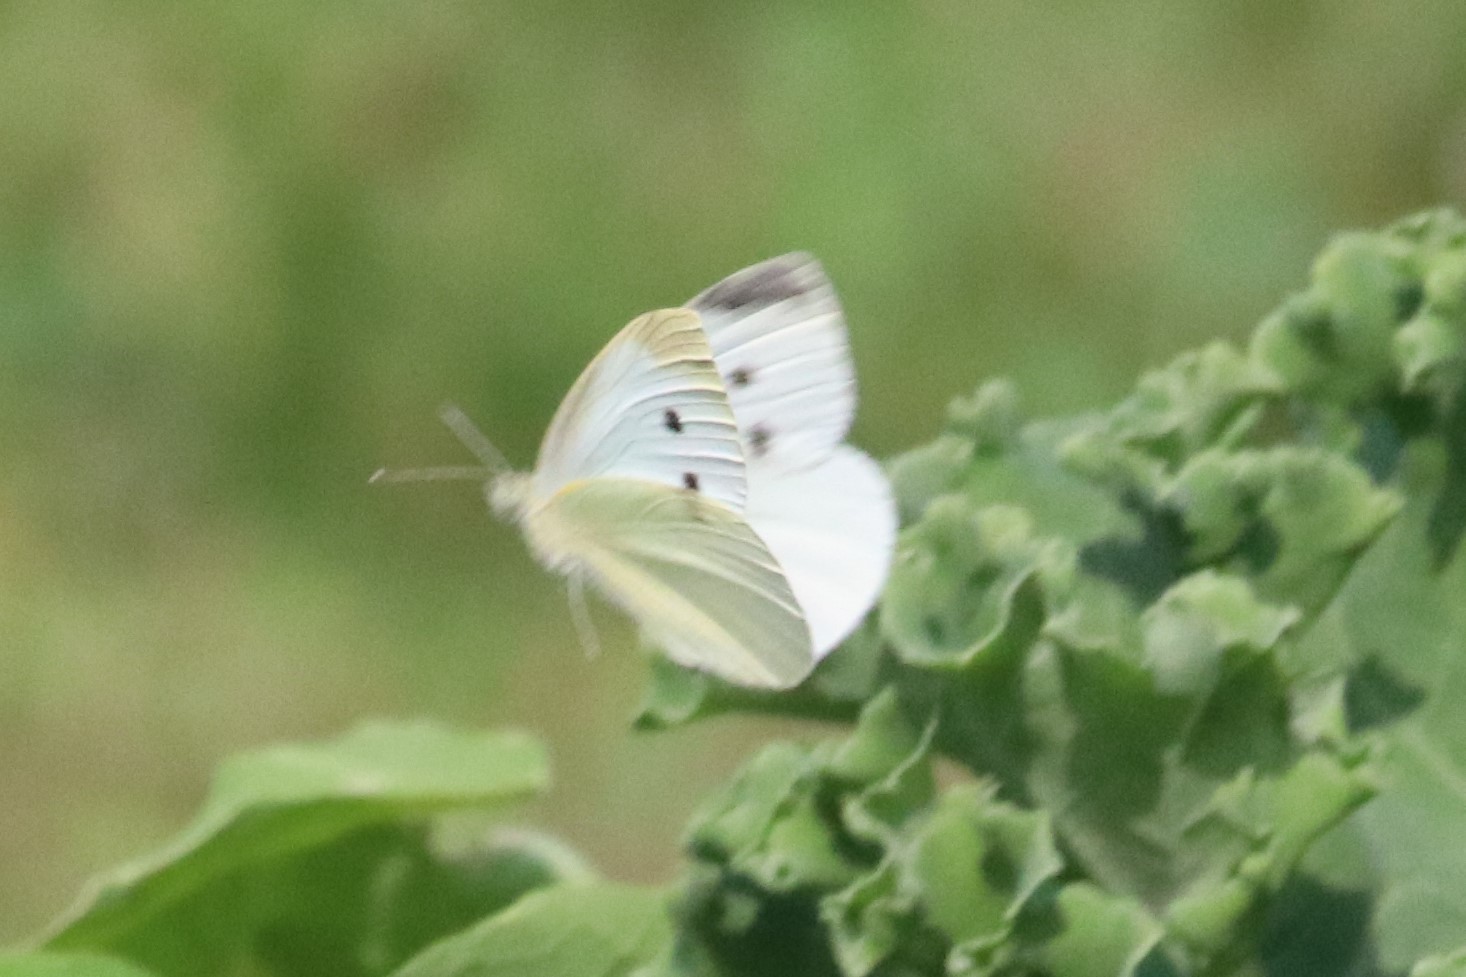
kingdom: Animalia
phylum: Arthropoda
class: Insecta
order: Lepidoptera
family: Pieridae
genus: Pieris
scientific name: Pieris rapae
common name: Small white
